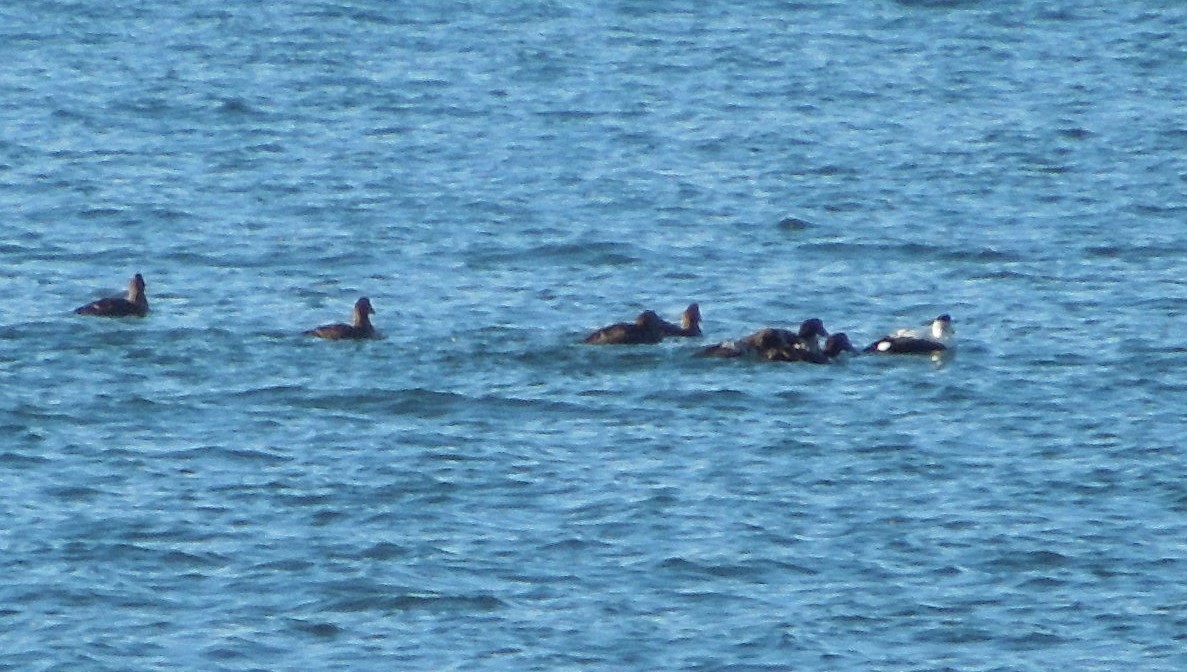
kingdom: Animalia
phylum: Chordata
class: Aves
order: Anseriformes
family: Anatidae
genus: Somateria
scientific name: Somateria mollissima
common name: Common eider
